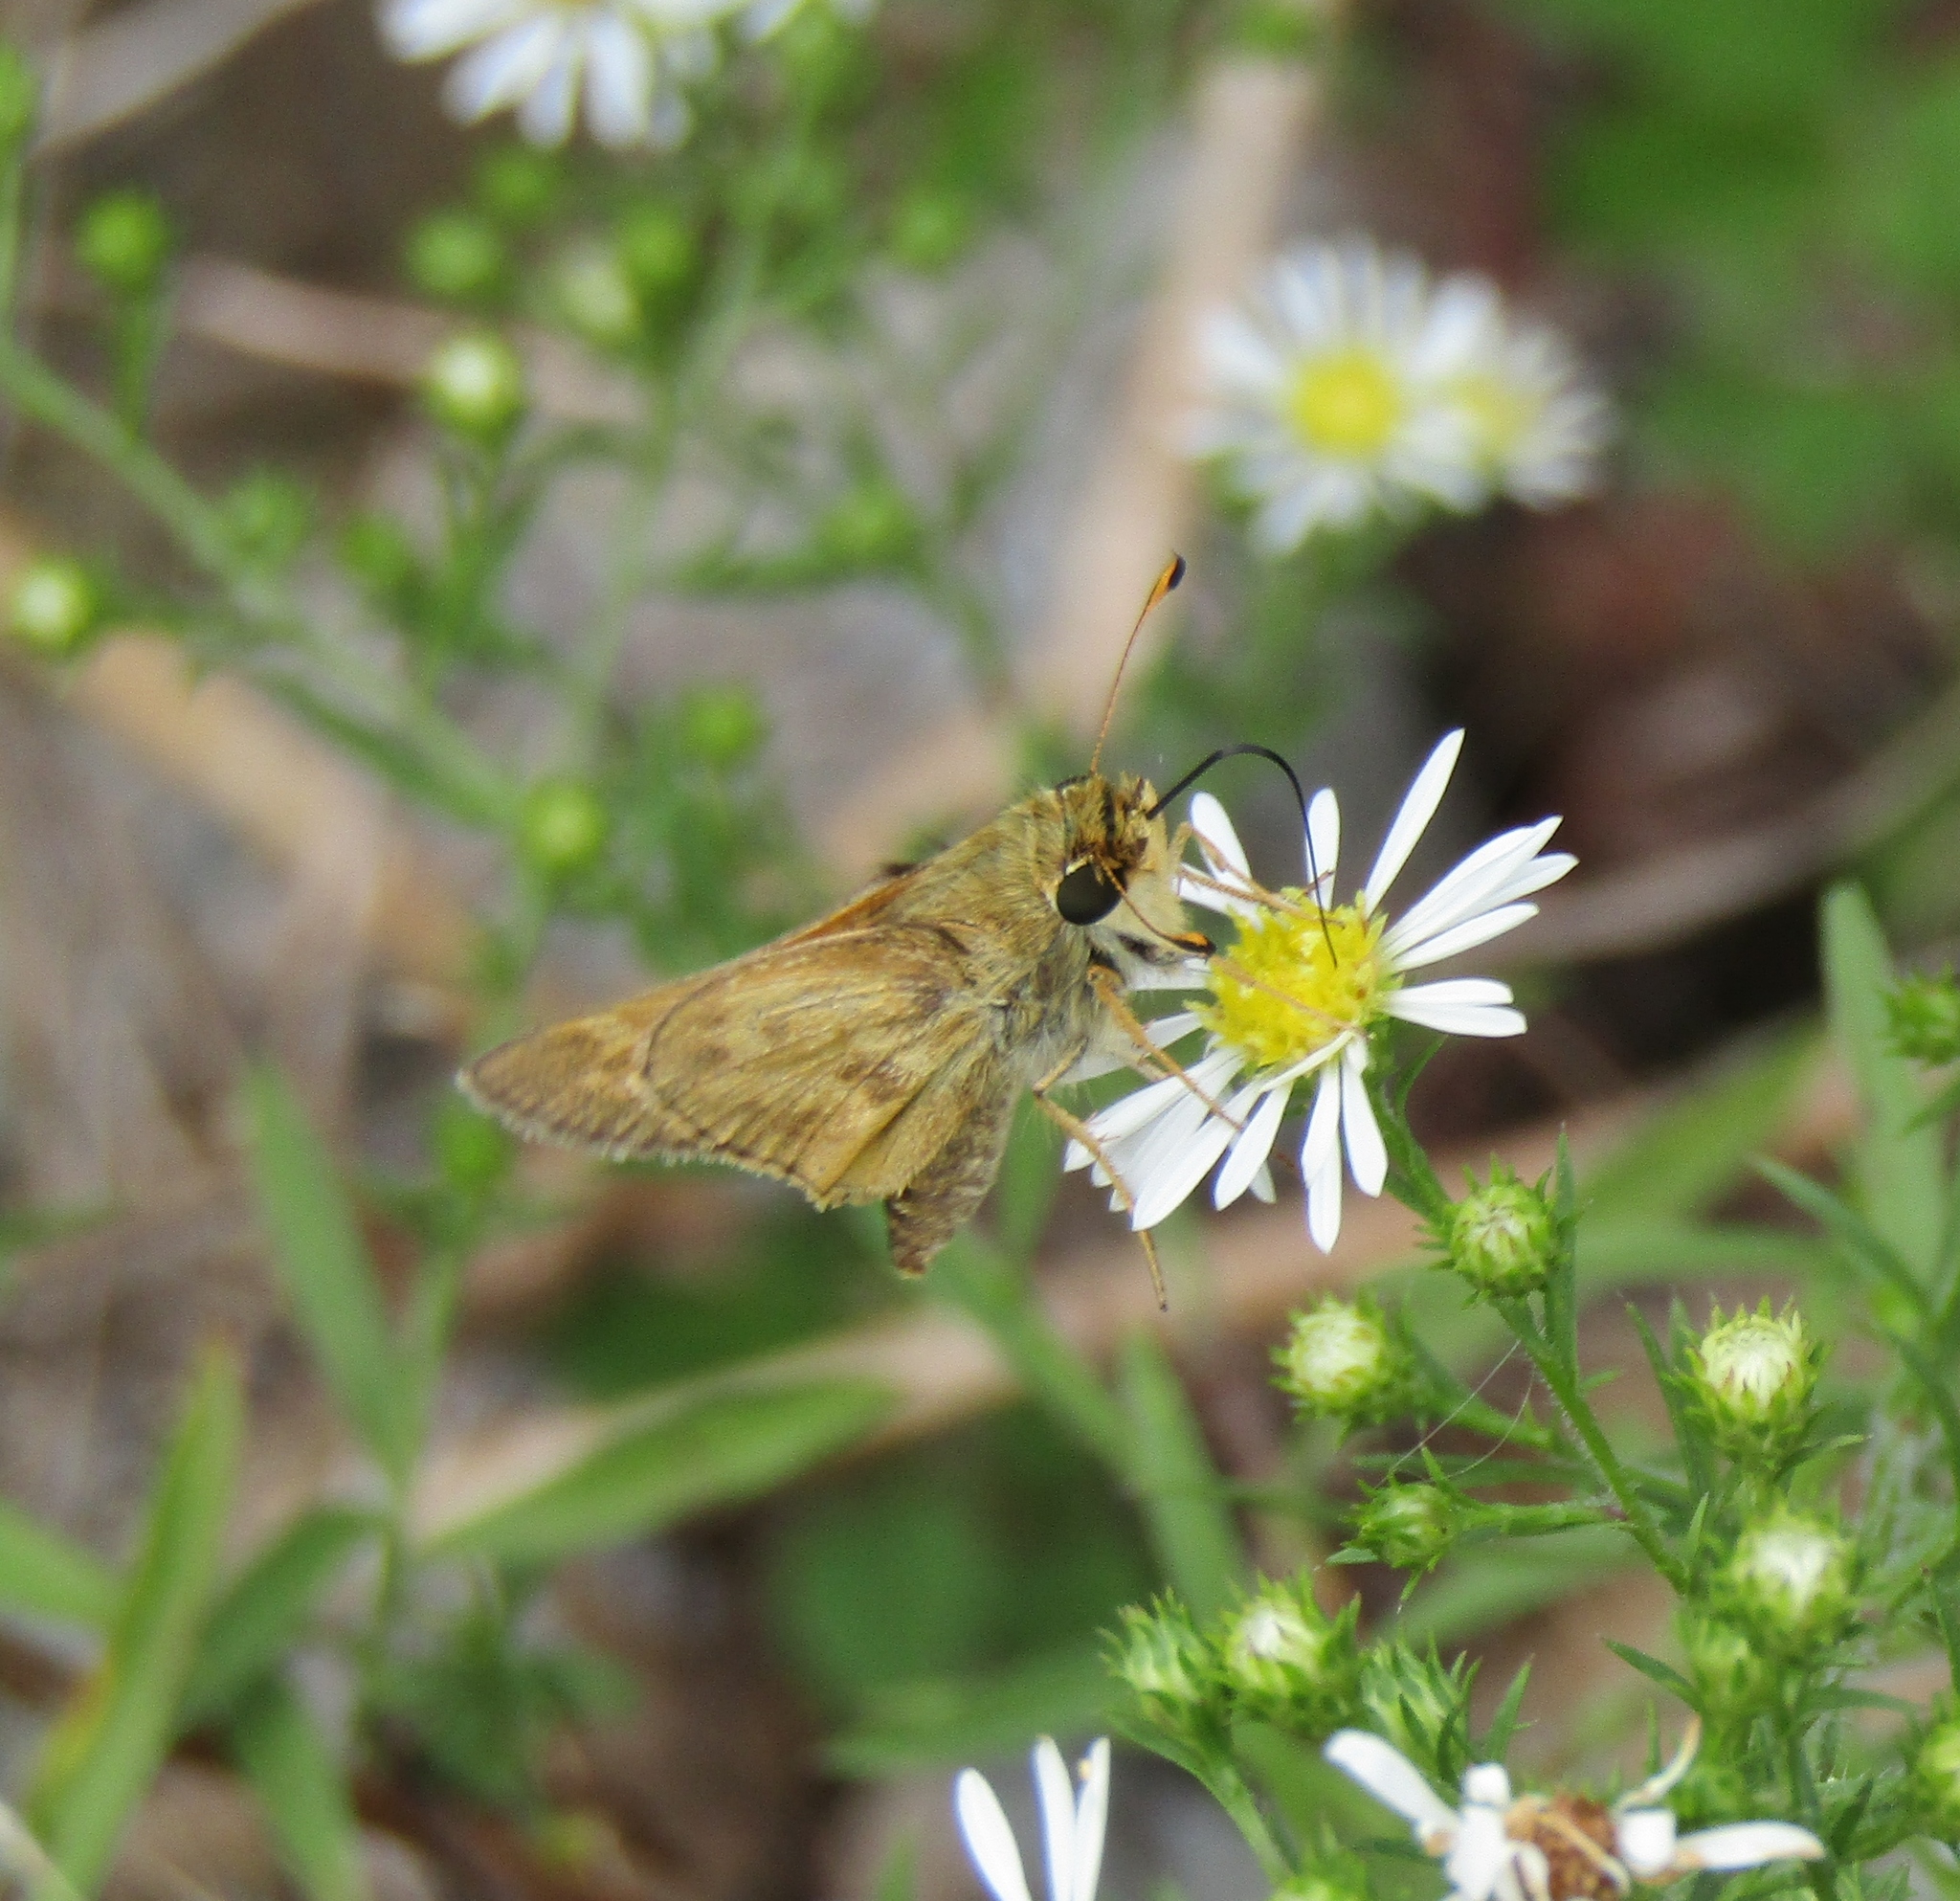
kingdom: Animalia
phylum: Arthropoda
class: Insecta
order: Lepidoptera
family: Hesperiidae
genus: Atalopedes
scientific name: Atalopedes
